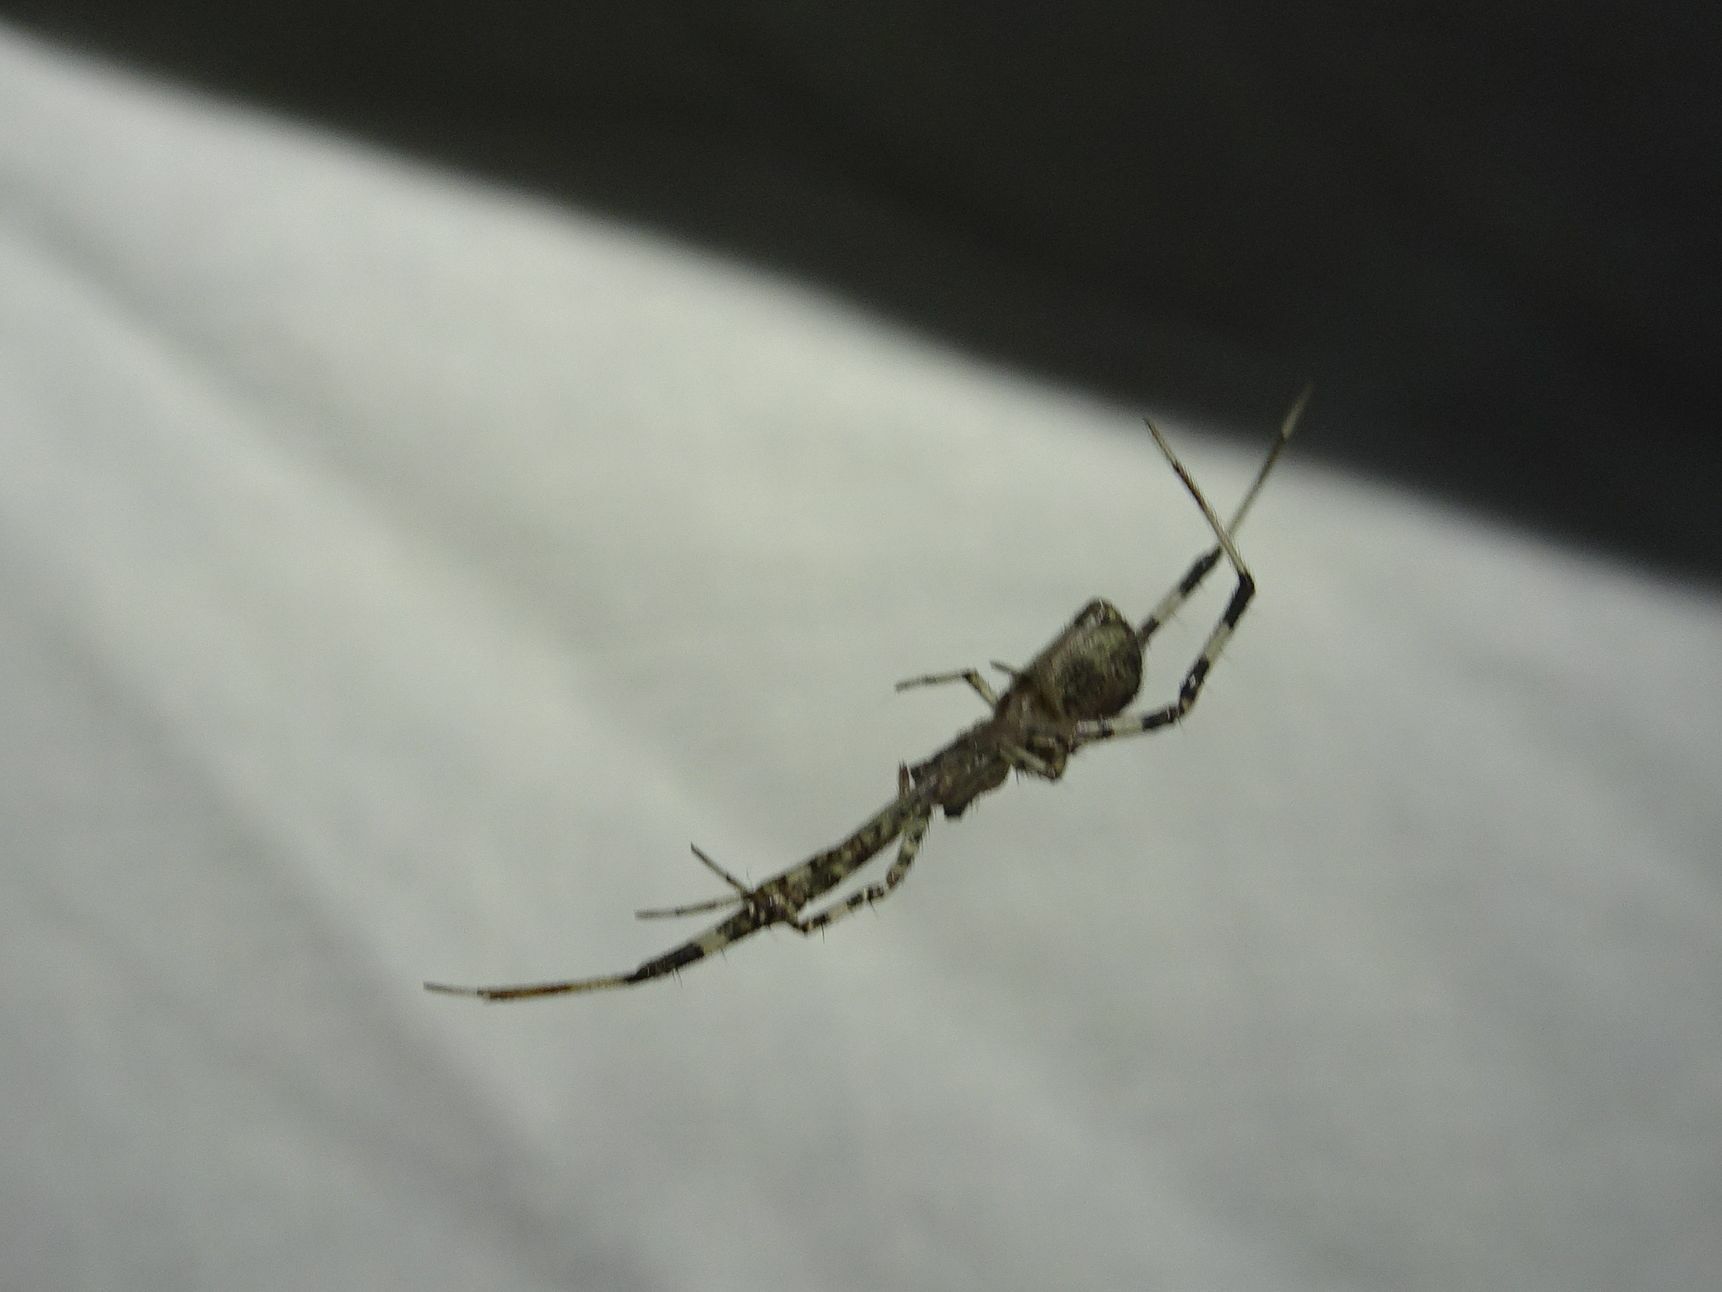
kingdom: Animalia
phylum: Arthropoda
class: Arachnida
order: Araneae
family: Theridiidae
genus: Episinus
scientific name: Episinus maculipes
